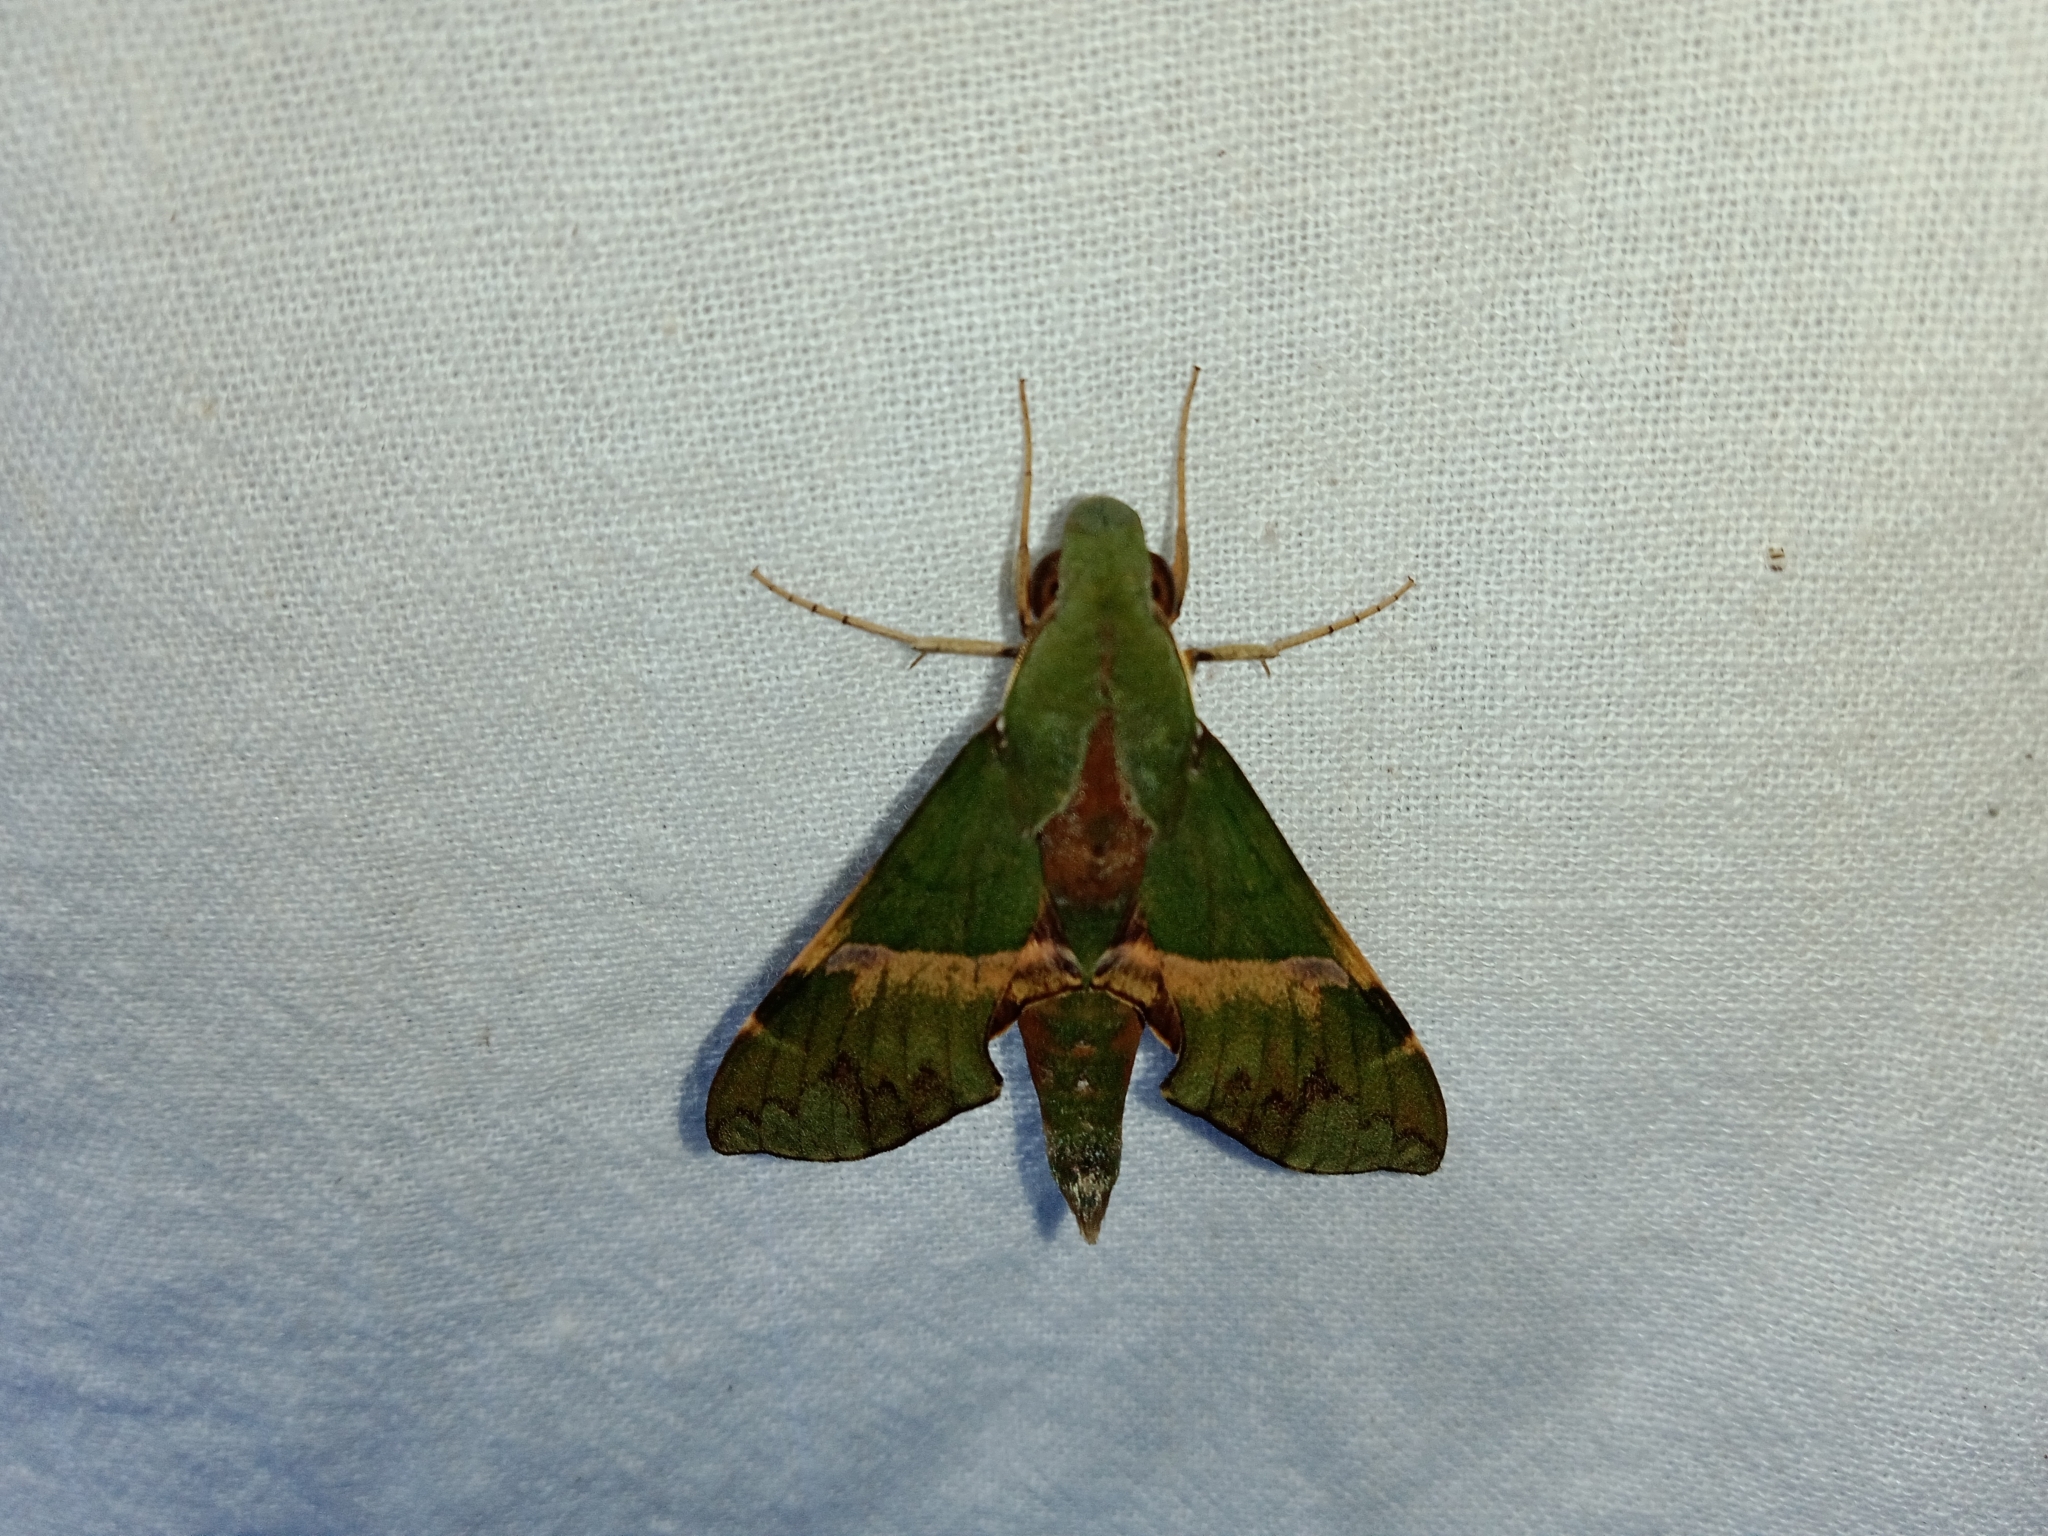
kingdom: Animalia
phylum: Arthropoda
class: Insecta
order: Lepidoptera
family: Sphingidae
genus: Angonyx
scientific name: Angonyx krishna
